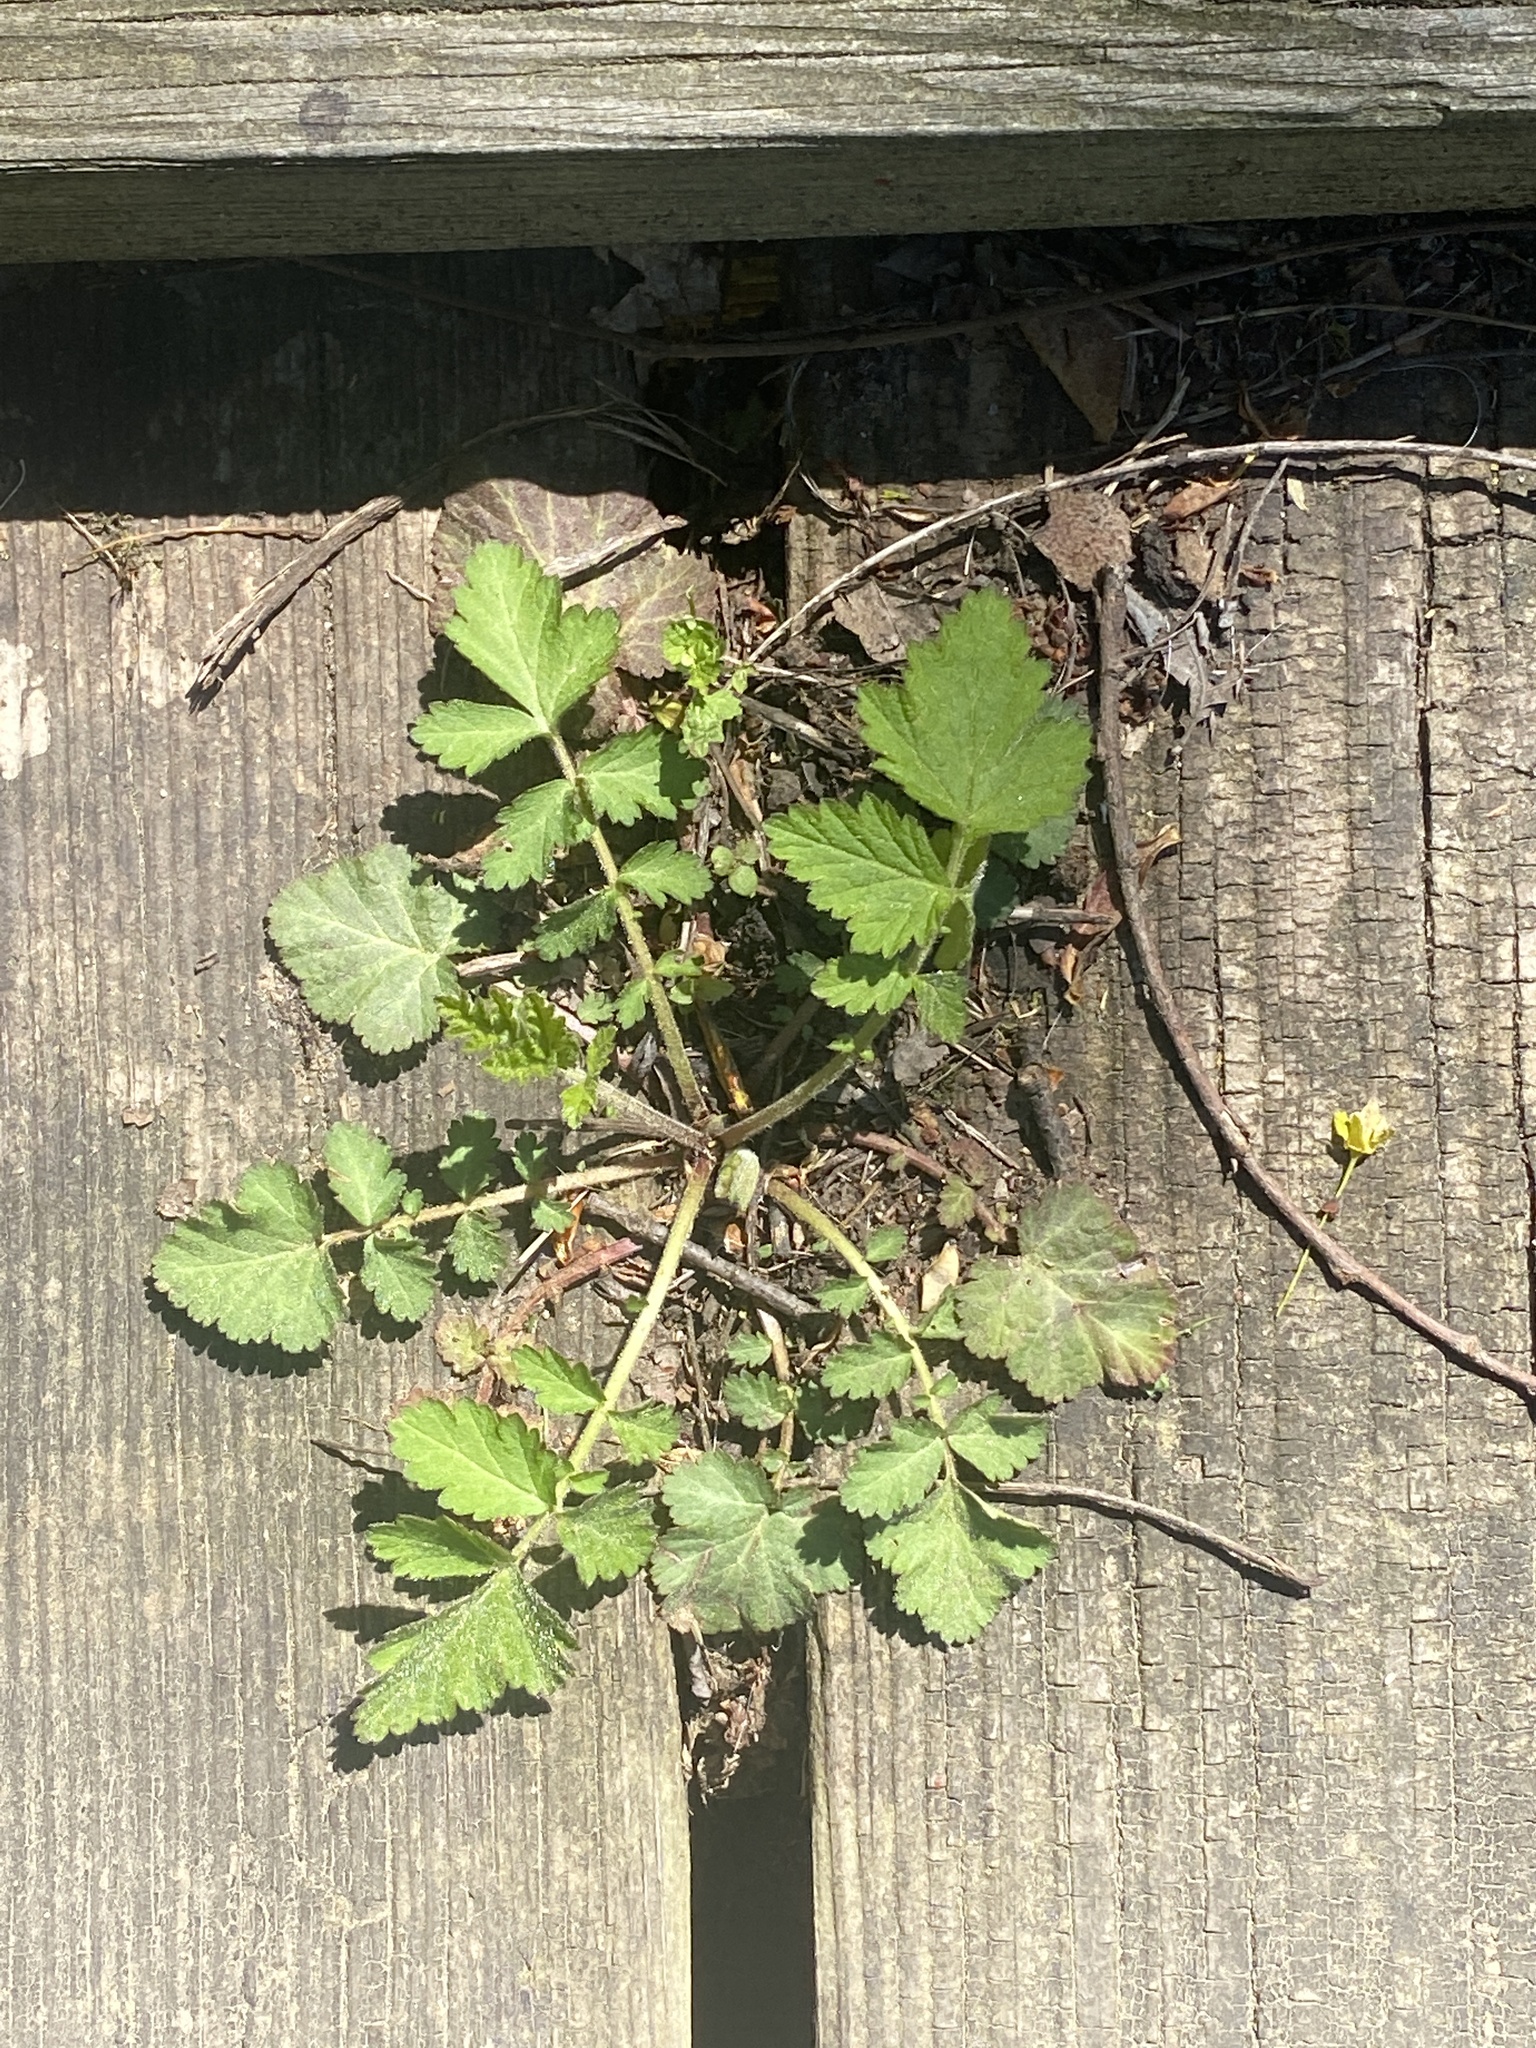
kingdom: Plantae
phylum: Tracheophyta
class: Magnoliopsida
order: Rosales
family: Rosaceae
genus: Geum
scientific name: Geum canadense
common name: White avens
